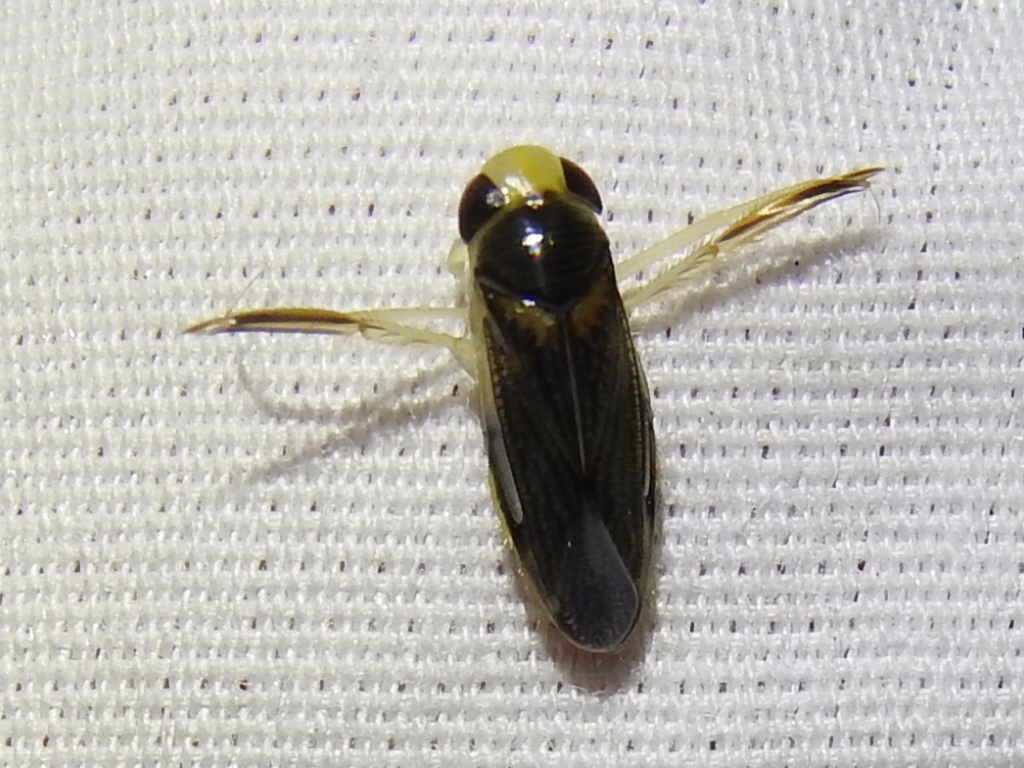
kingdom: Animalia
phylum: Arthropoda
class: Insecta
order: Hemiptera
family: Corixidae
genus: Corisella
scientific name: Corisella edulis
